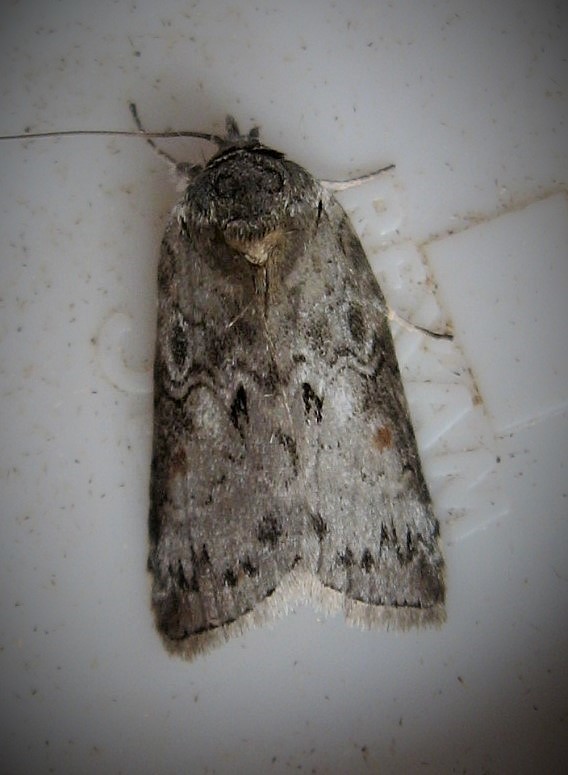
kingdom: Animalia
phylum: Arthropoda
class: Insecta
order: Lepidoptera
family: Nolidae
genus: Nycteola
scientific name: Nycteola metaspilella
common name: Forgotten frigid owlet
